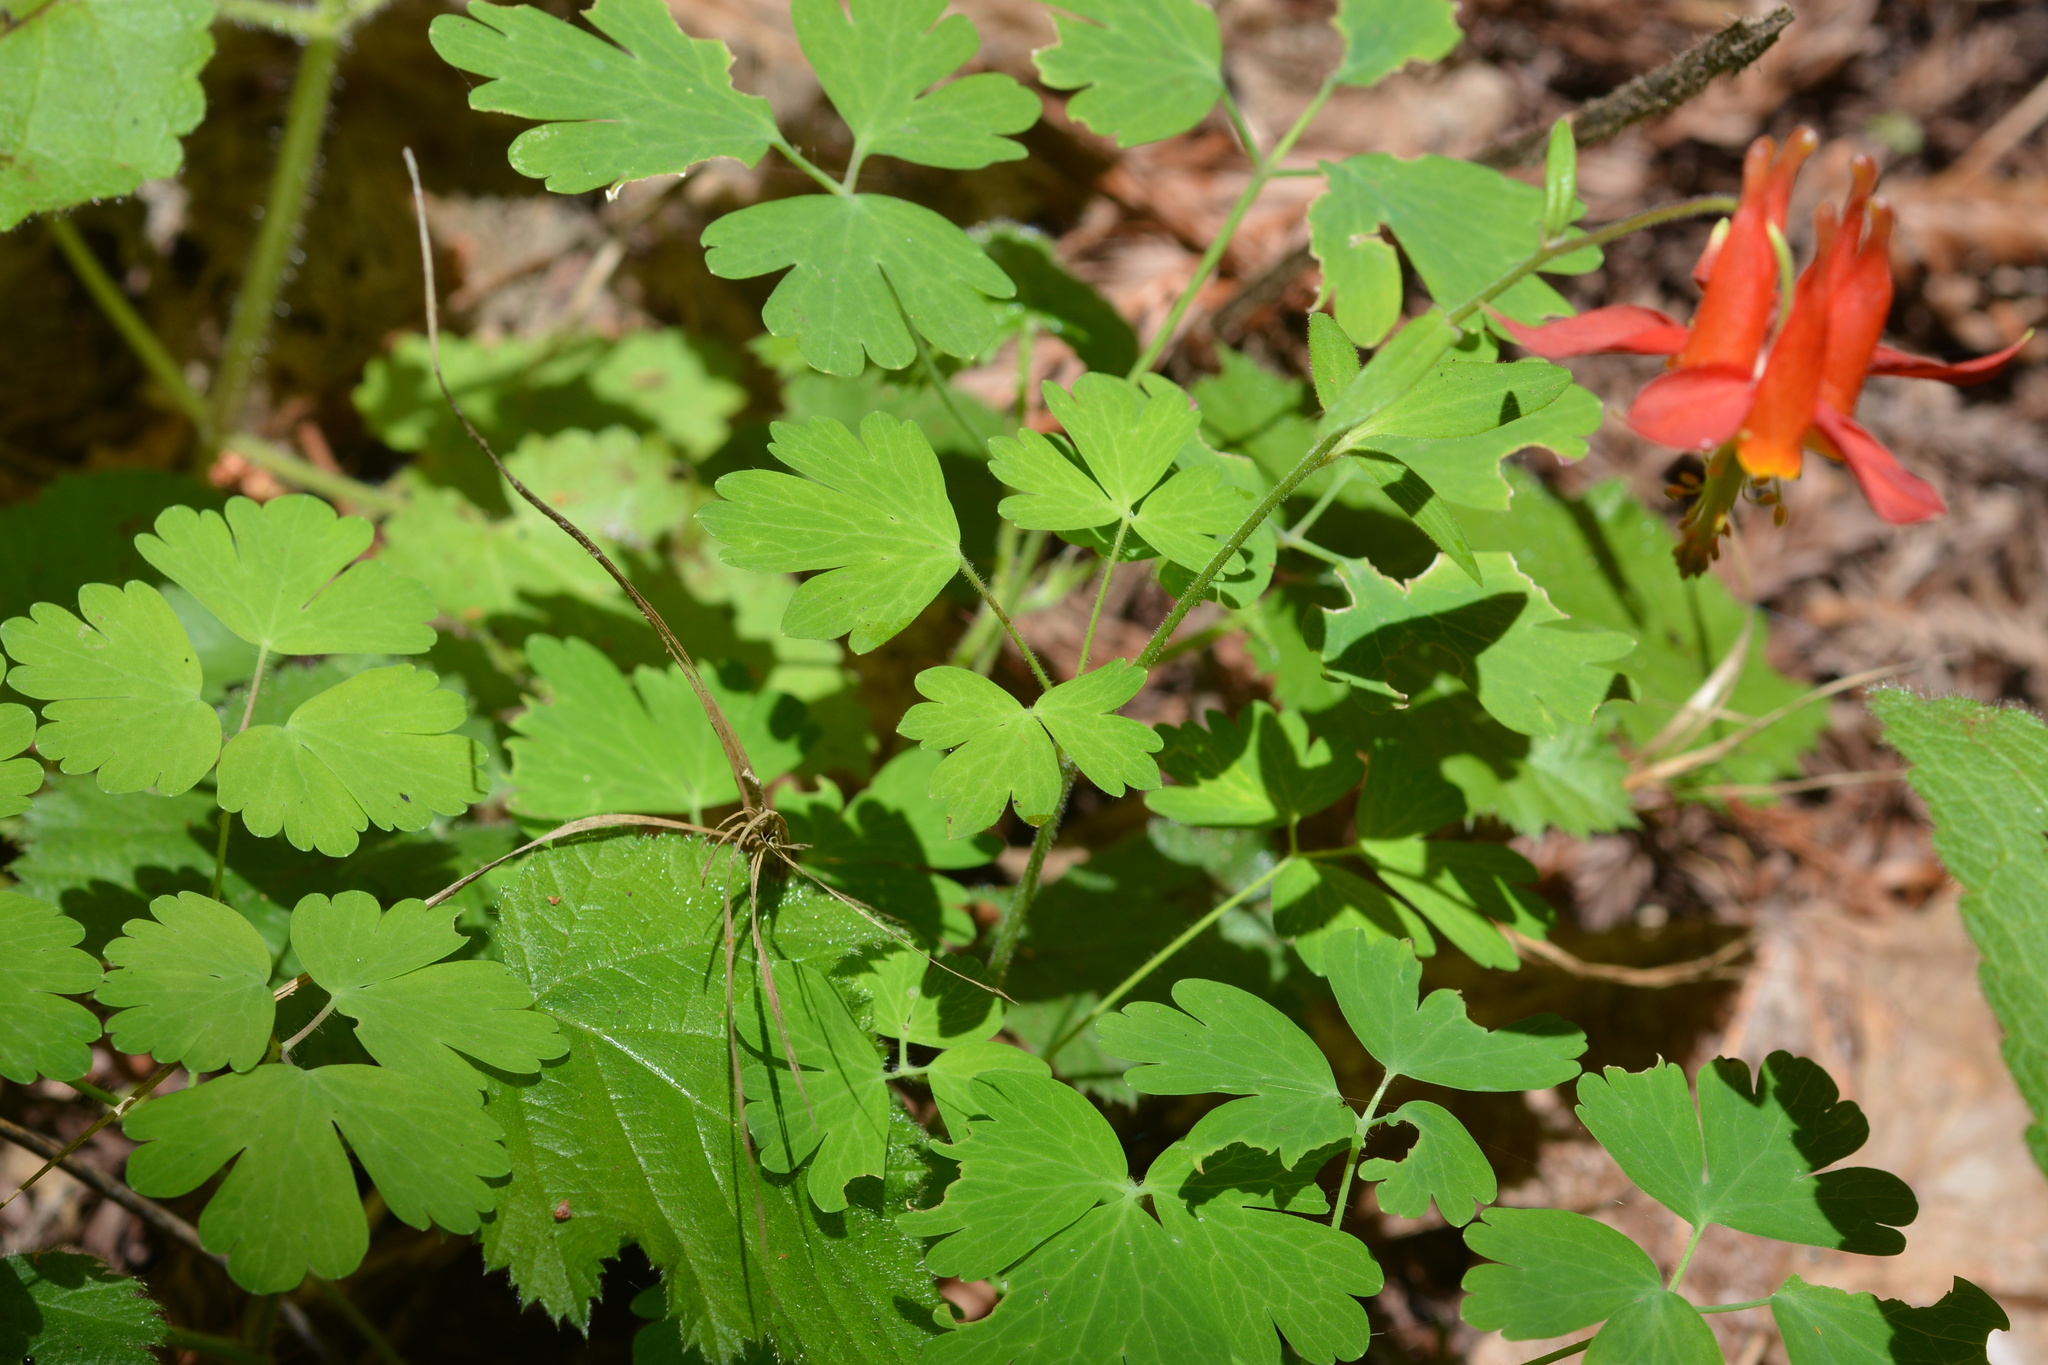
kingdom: Plantae
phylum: Tracheophyta
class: Magnoliopsida
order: Ranunculales
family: Ranunculaceae
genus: Aquilegia
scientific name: Aquilegia formosa
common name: Sitka columbine
